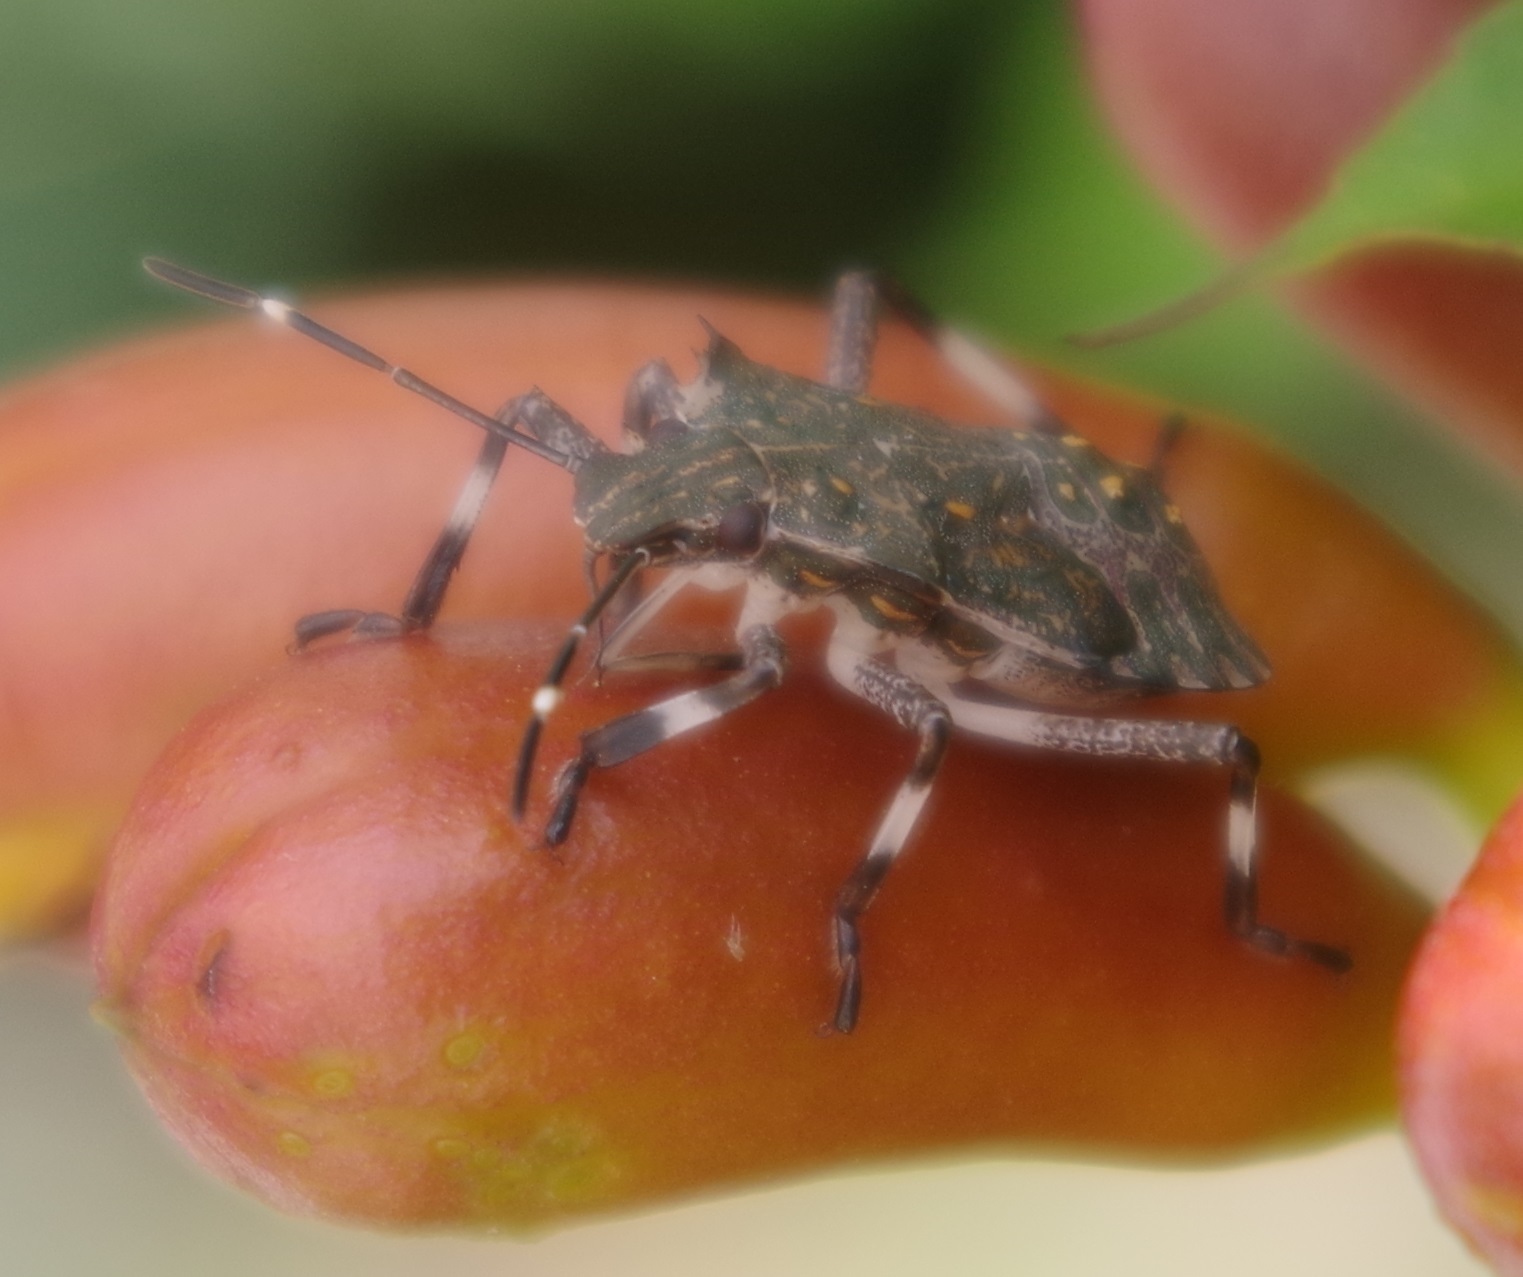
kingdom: Animalia
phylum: Arthropoda
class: Insecta
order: Hemiptera
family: Pentatomidae
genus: Halyomorpha
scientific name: Halyomorpha halys
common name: Brown marmorated stink bug
